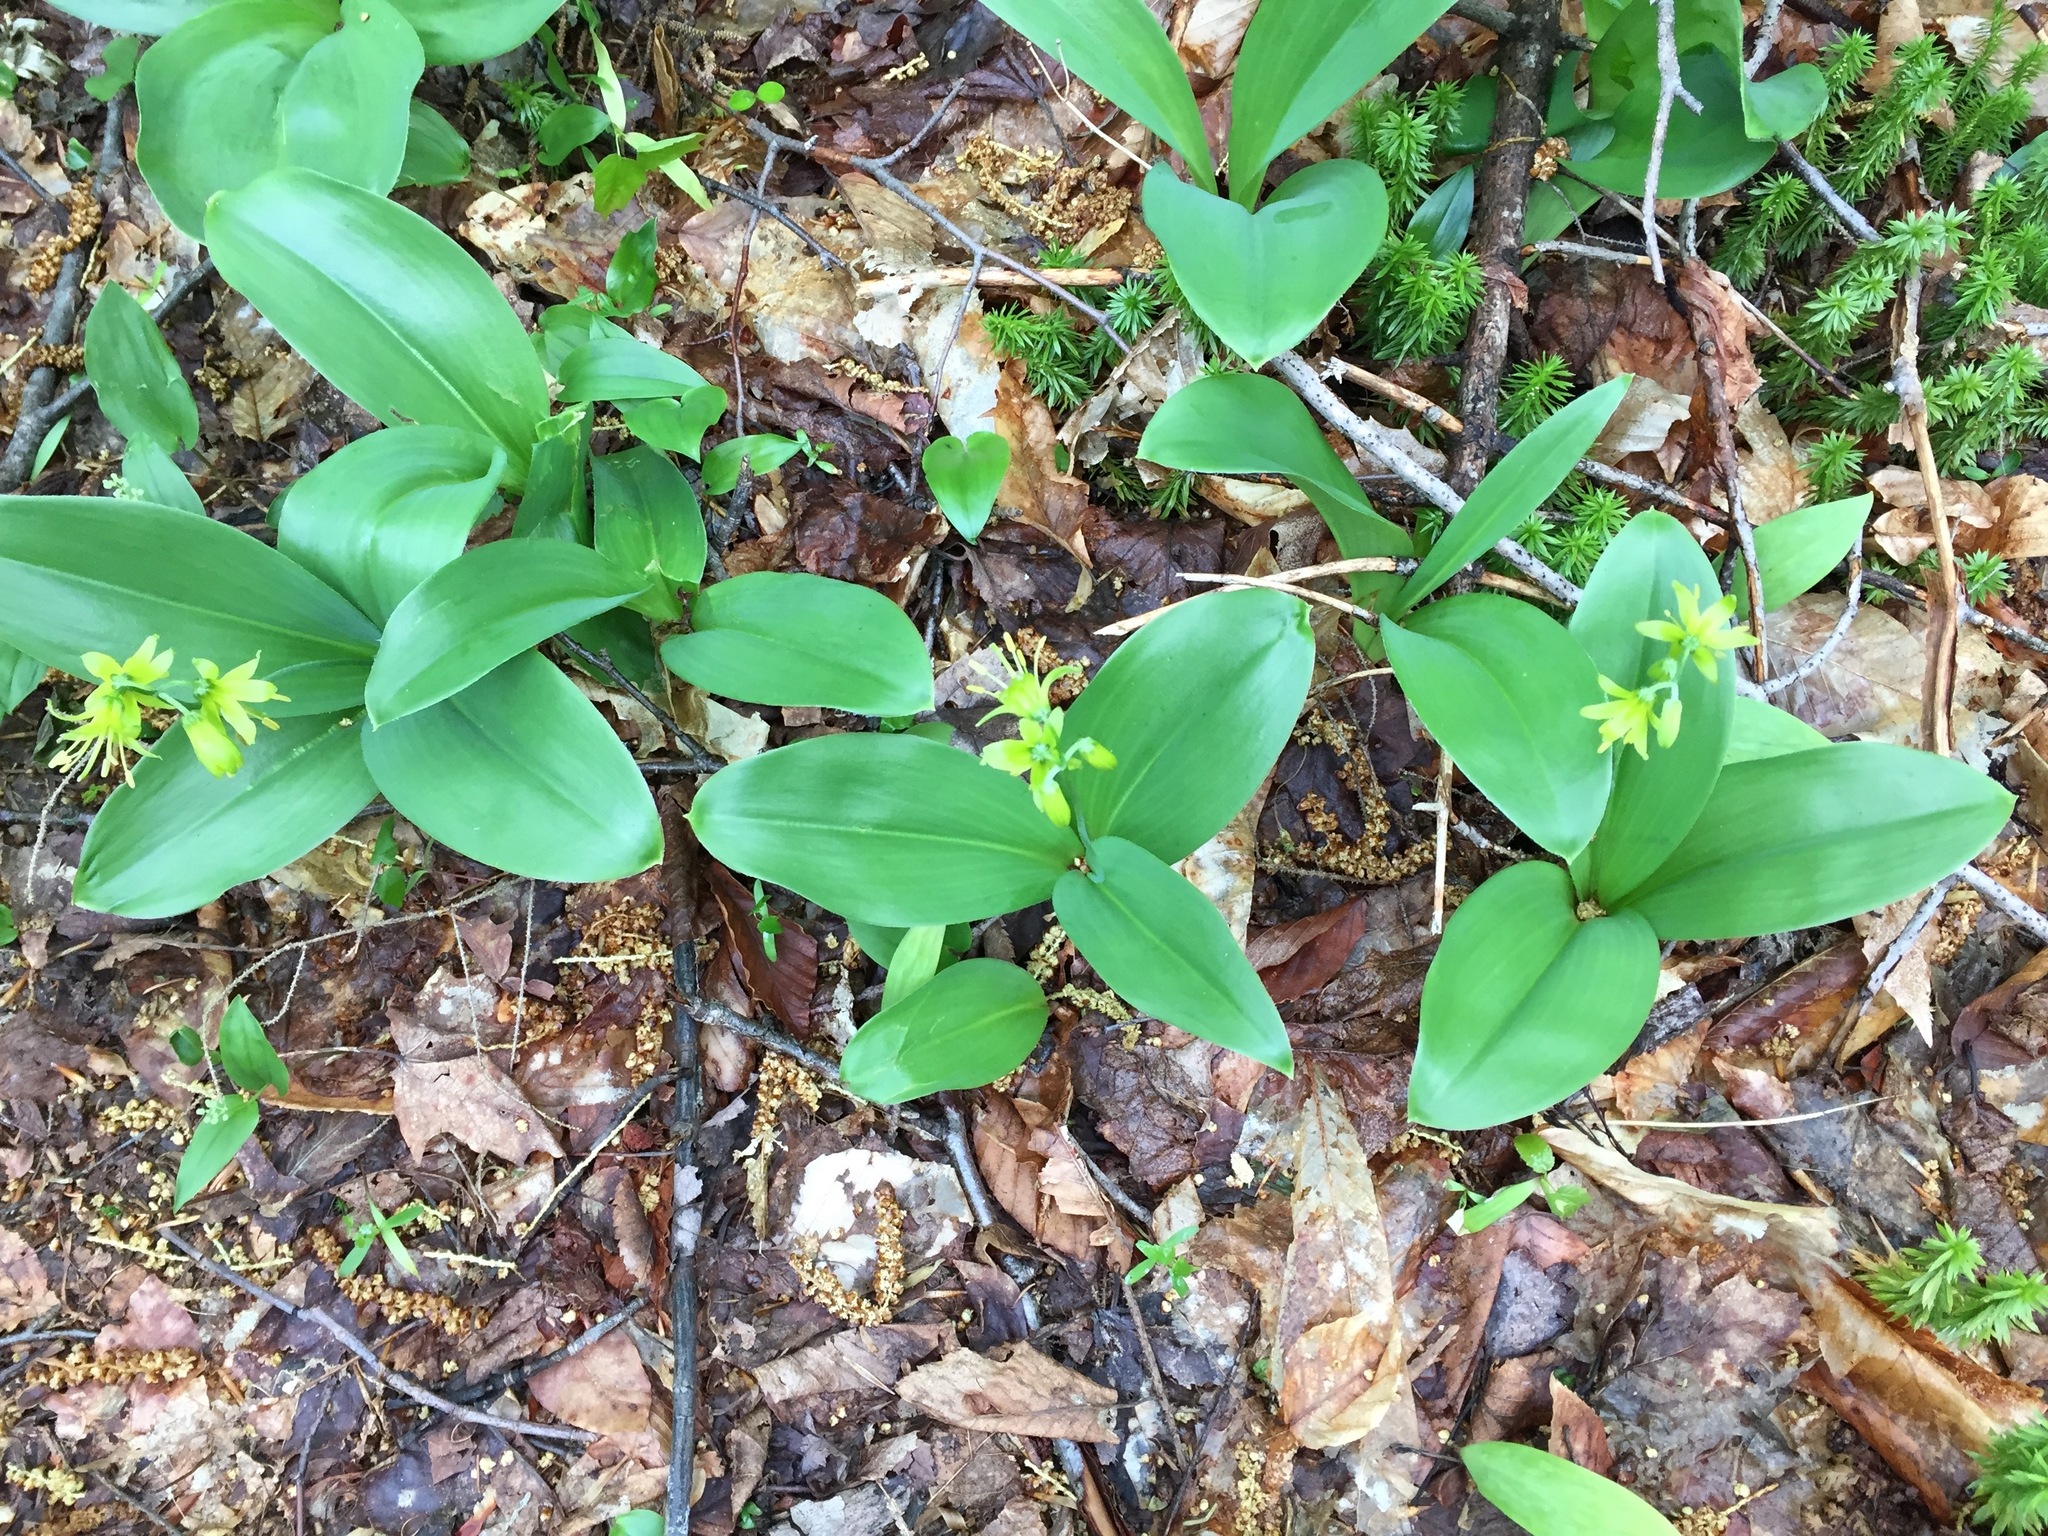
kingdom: Plantae
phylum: Tracheophyta
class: Liliopsida
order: Liliales
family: Liliaceae
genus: Clintonia
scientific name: Clintonia borealis
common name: Yellow clintonia
